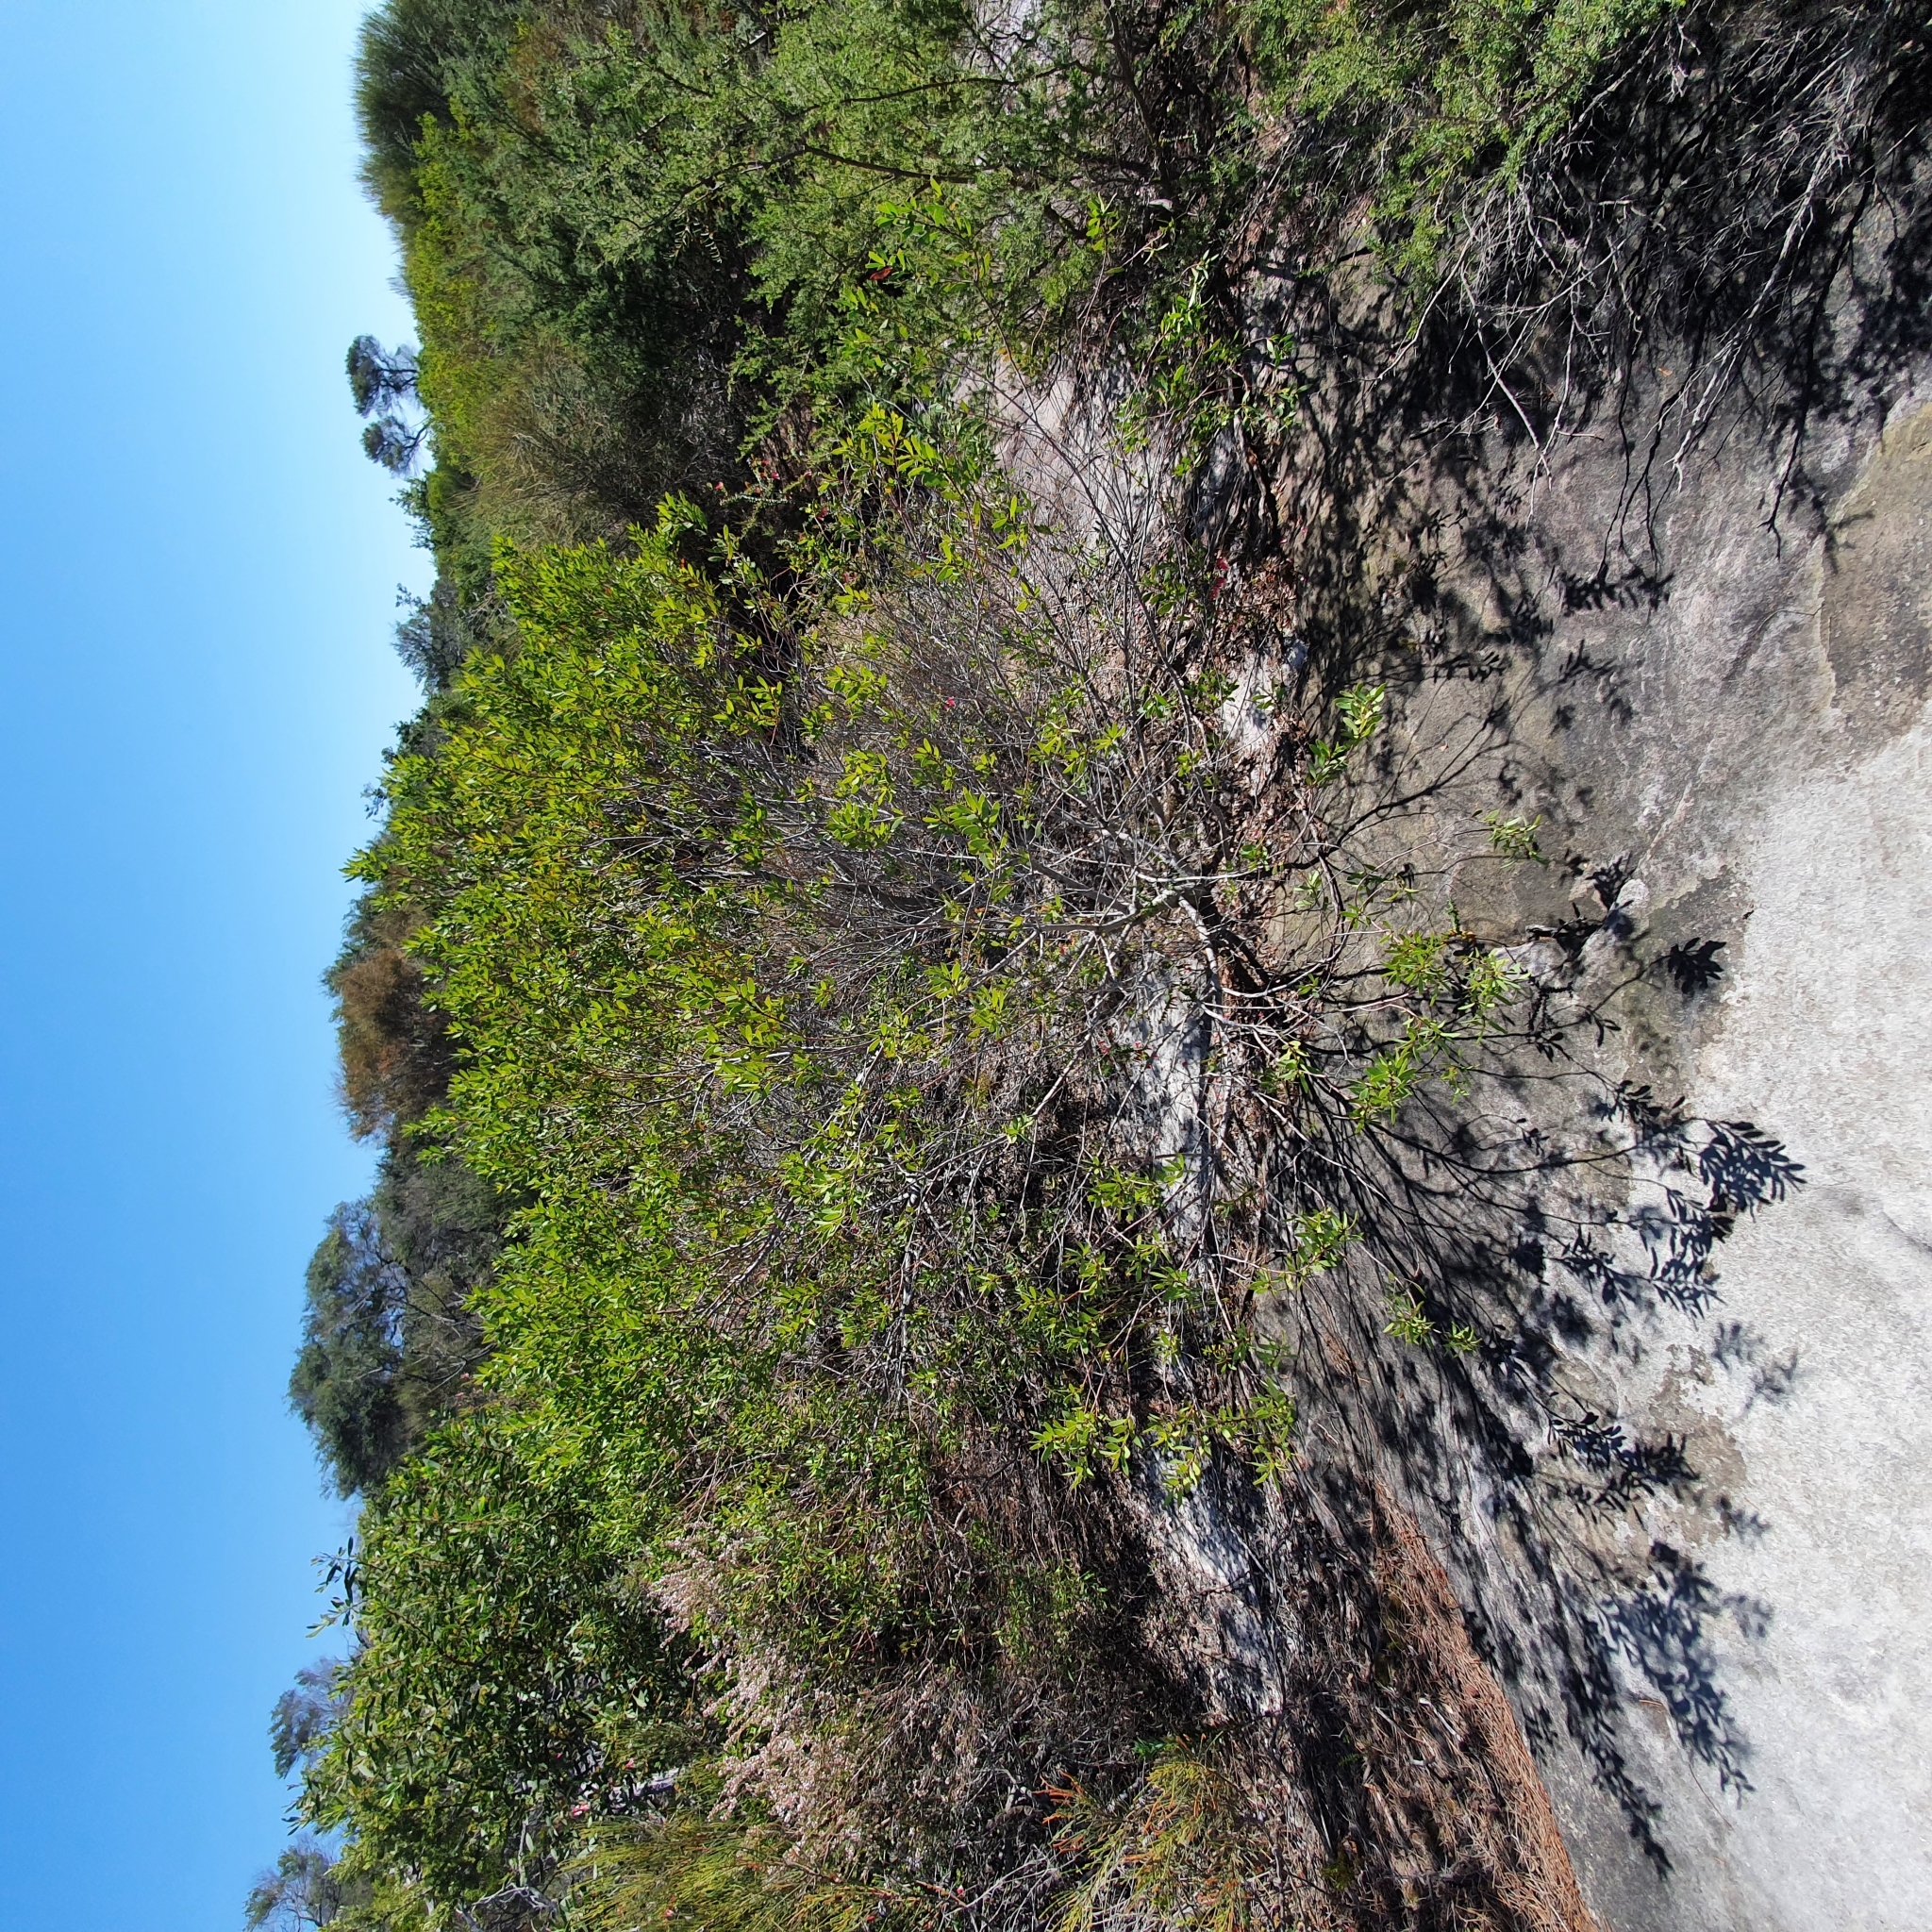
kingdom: Plantae
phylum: Tracheophyta
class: Magnoliopsida
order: Proteales
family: Proteaceae
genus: Persoonia
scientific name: Persoonia lanceolata
